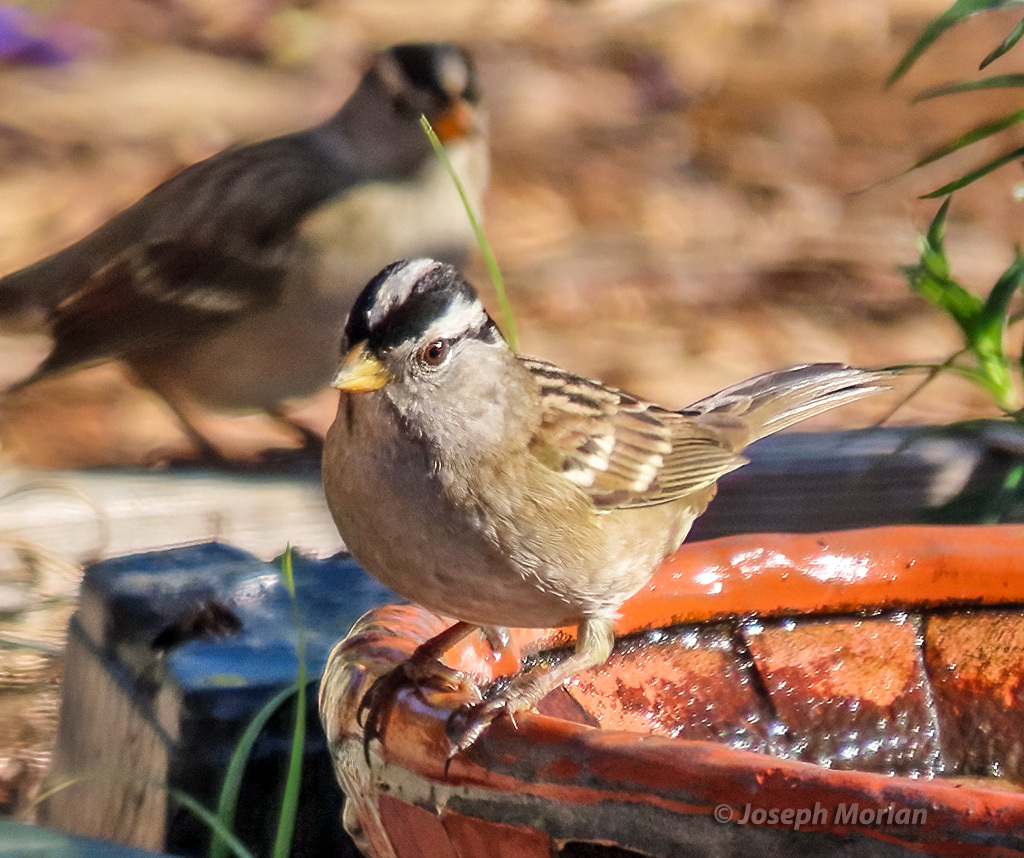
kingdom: Animalia
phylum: Chordata
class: Aves
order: Passeriformes
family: Passerellidae
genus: Zonotrichia
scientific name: Zonotrichia leucophrys
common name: White-crowned sparrow
